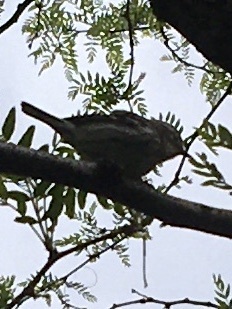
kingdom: Animalia
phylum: Chordata
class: Aves
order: Passeriformes
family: Parulidae
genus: Mniotilta
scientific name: Mniotilta varia
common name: Black-and-white warbler
